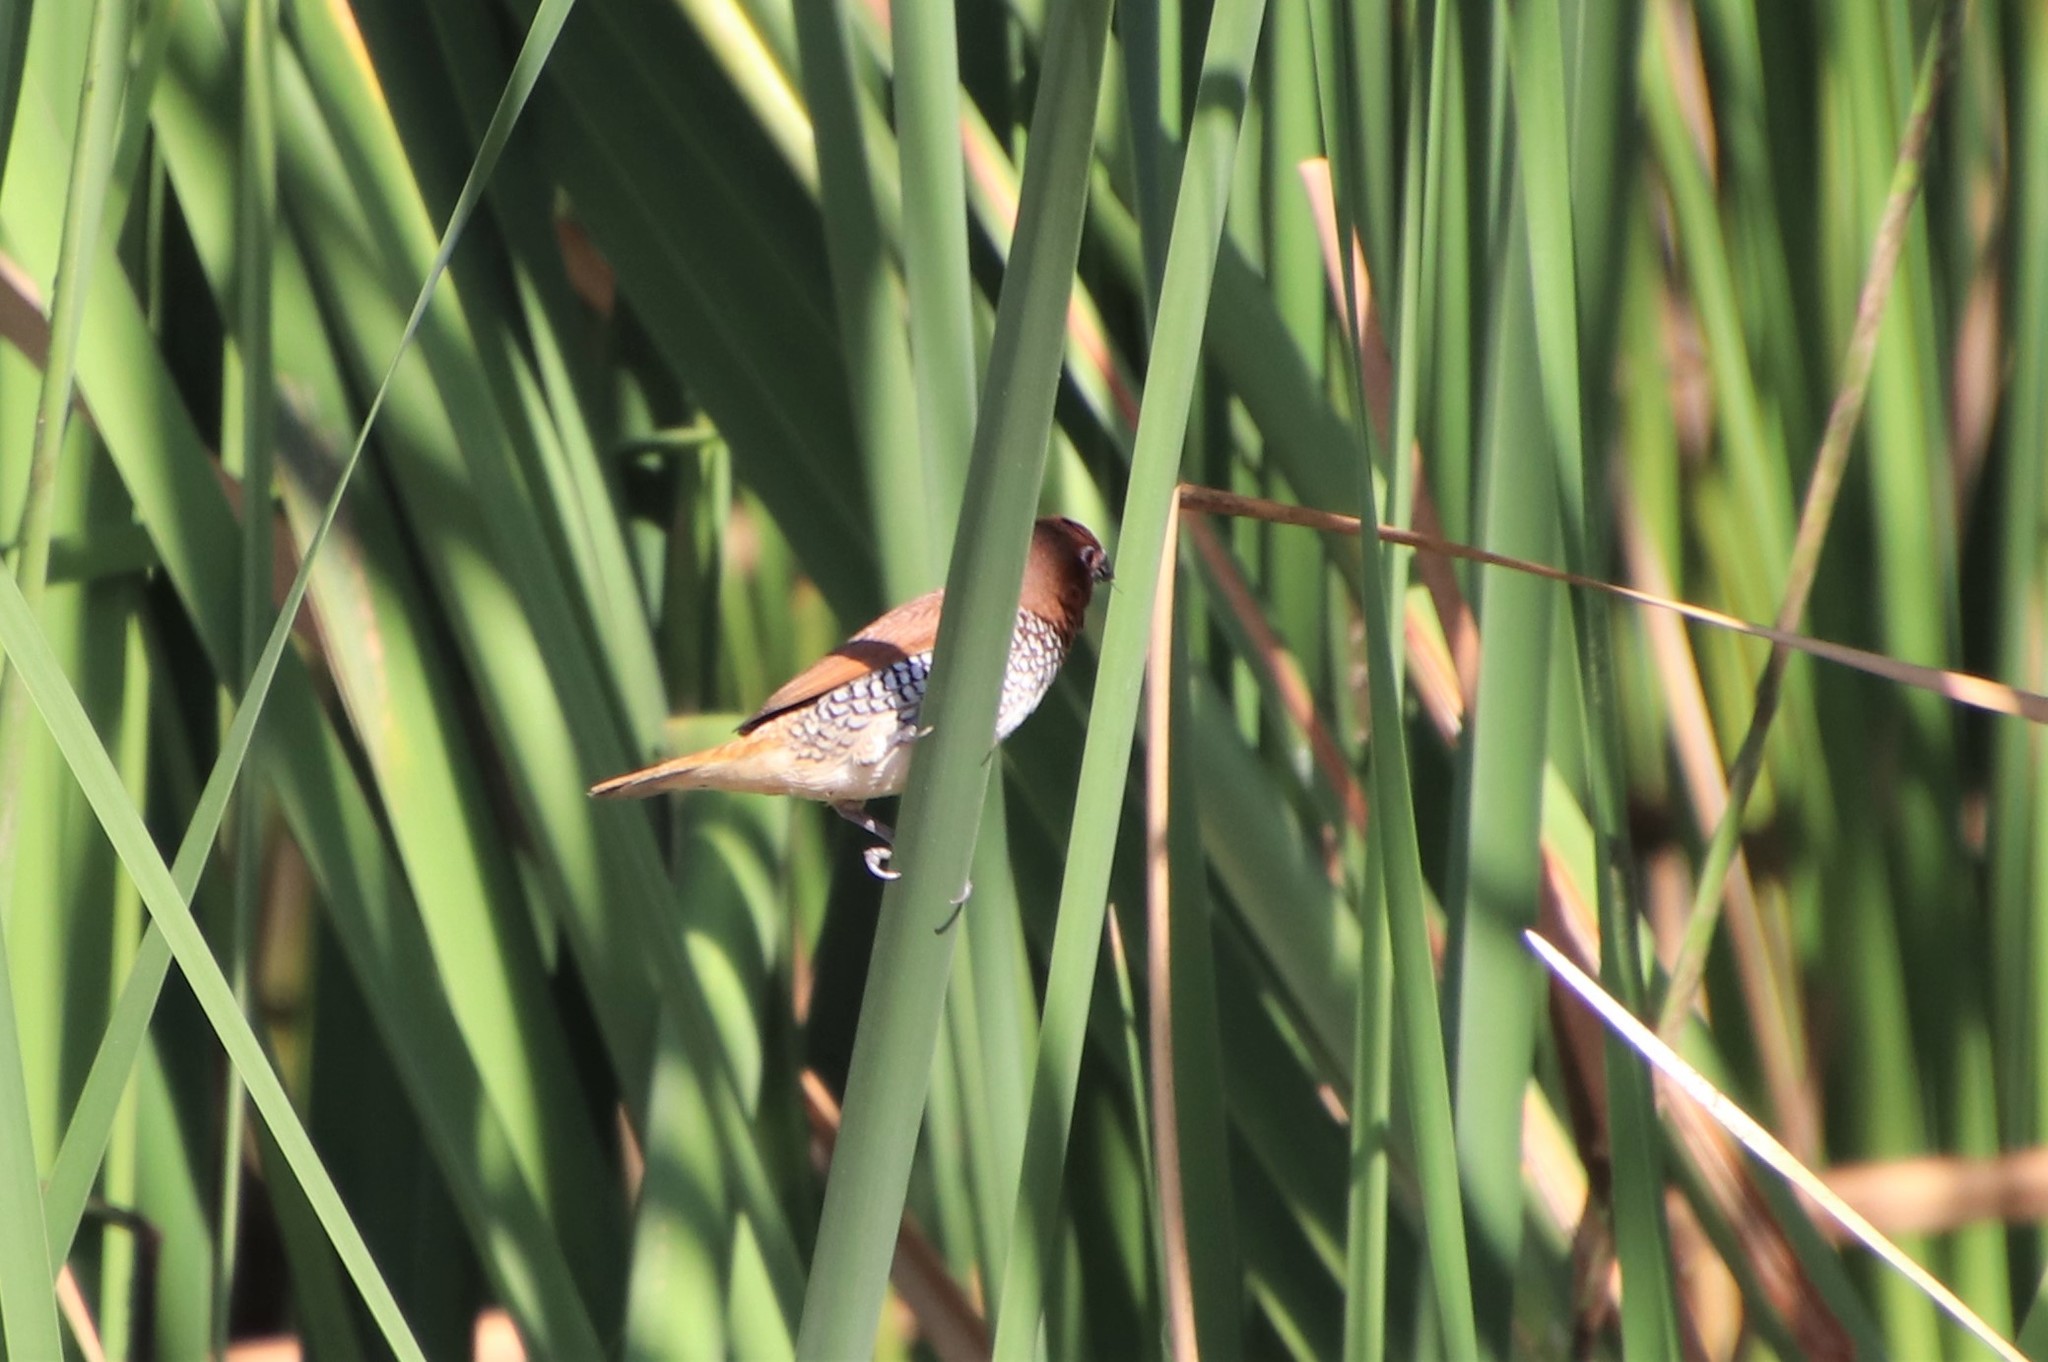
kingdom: Animalia
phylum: Chordata
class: Aves
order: Passeriformes
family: Estrildidae
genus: Lonchura
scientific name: Lonchura punctulata
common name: Scaly-breasted munia
